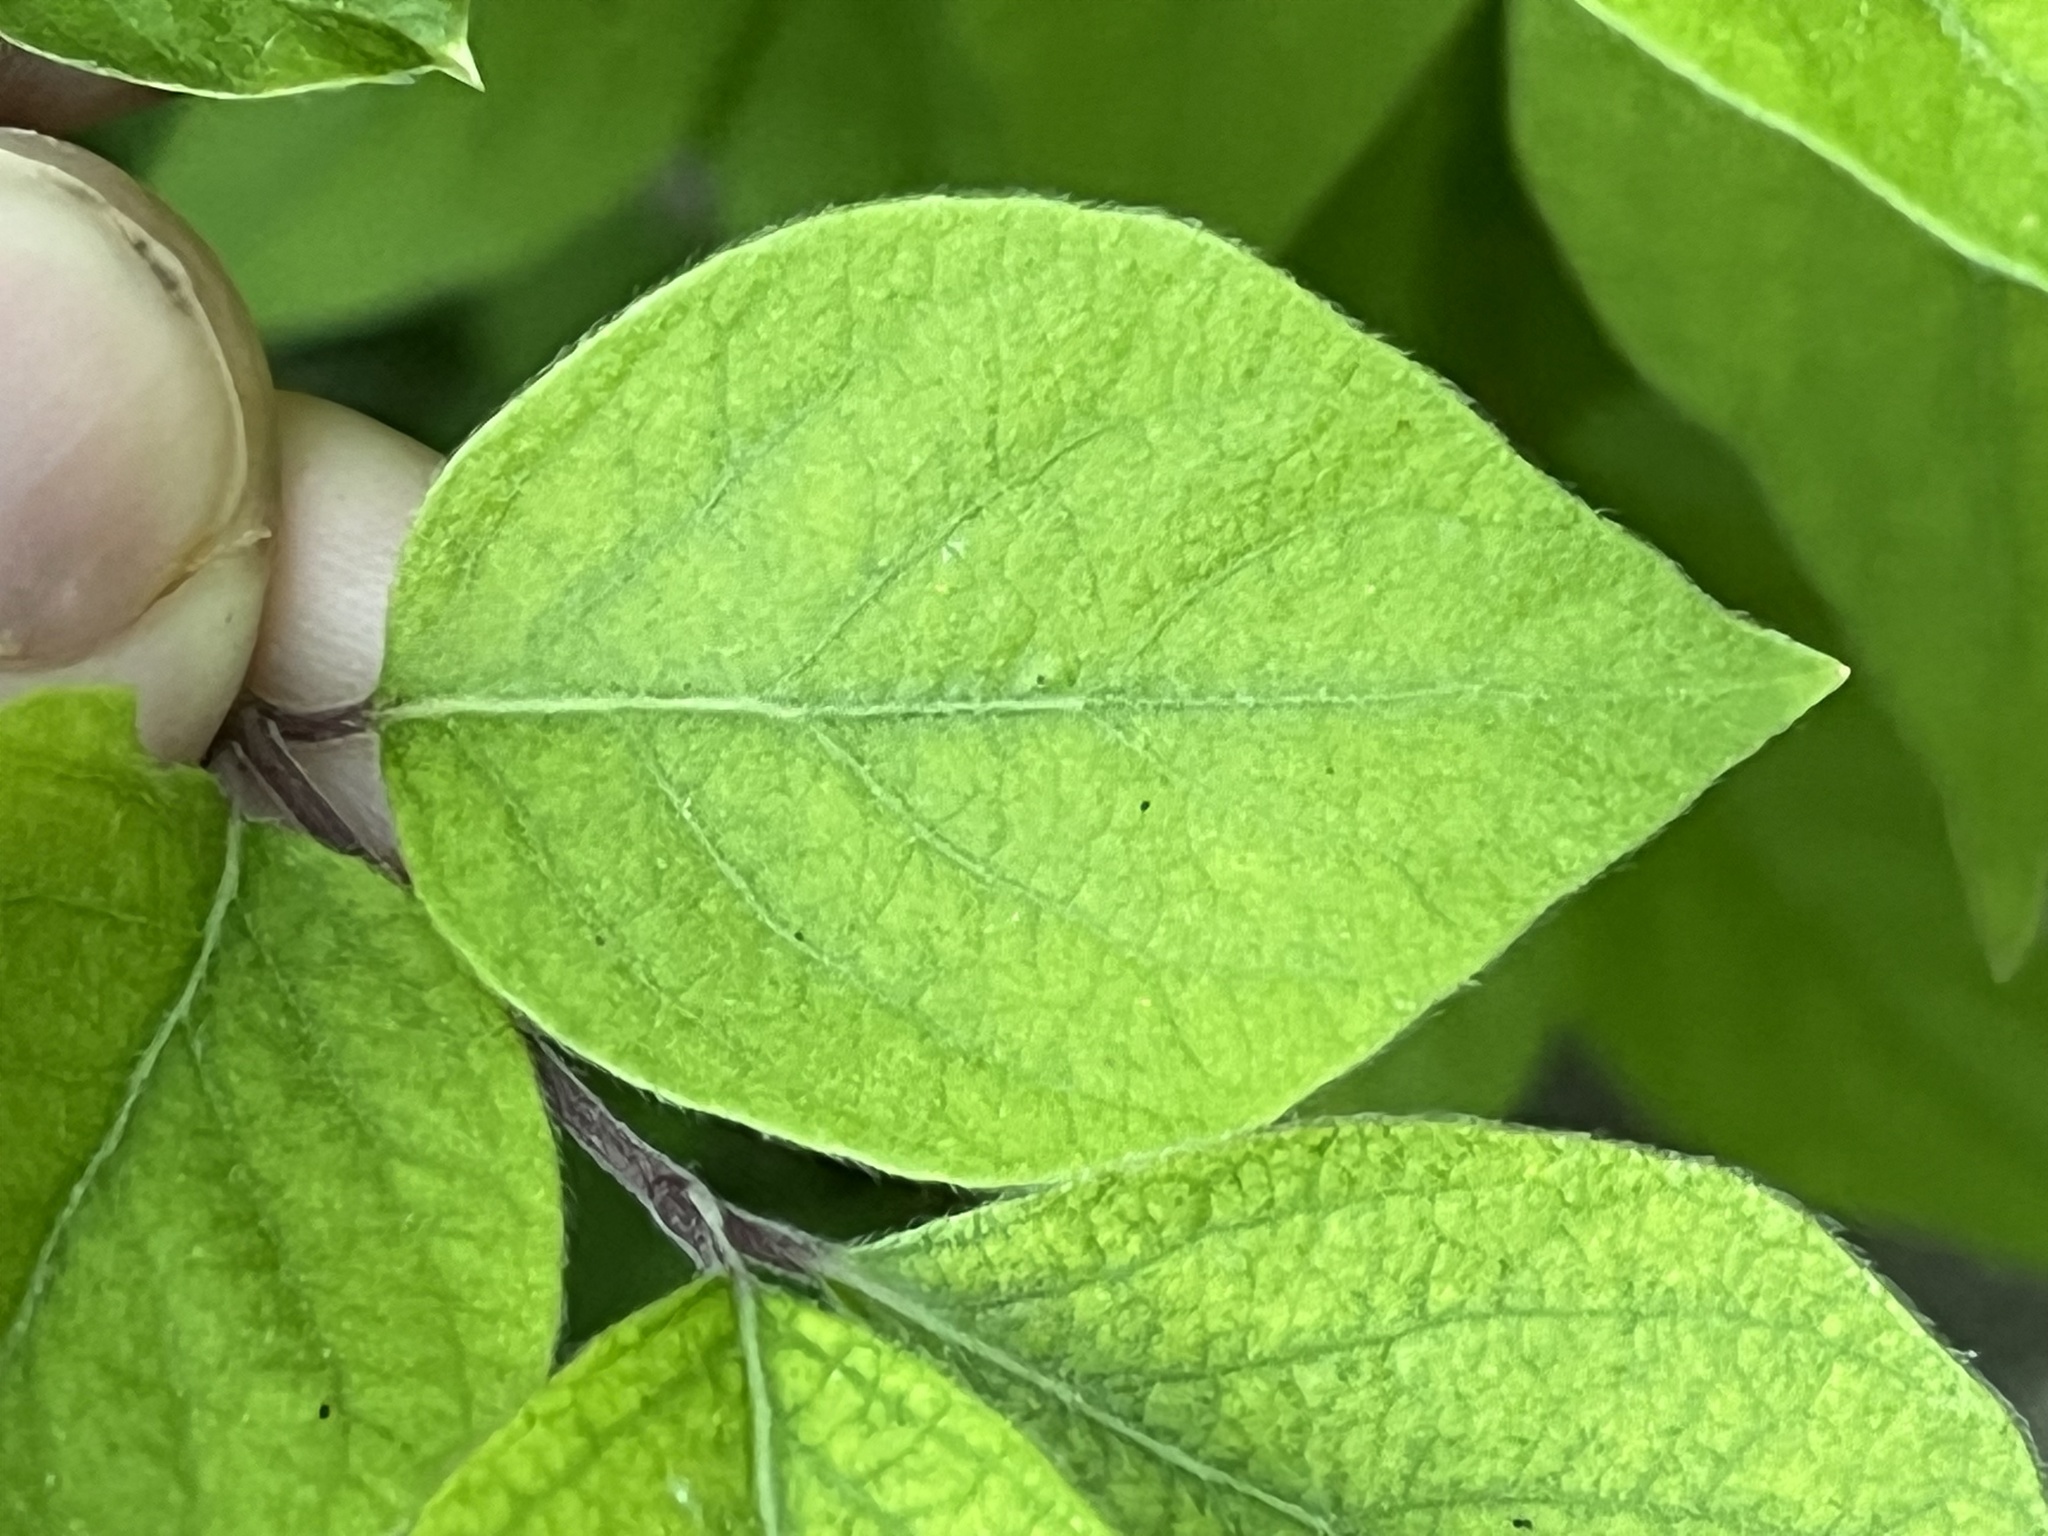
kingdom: Plantae
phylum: Tracheophyta
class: Magnoliopsida
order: Dipsacales
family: Caprifoliaceae
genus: Lonicera
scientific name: Lonicera maackii
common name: Amur honeysuckle
